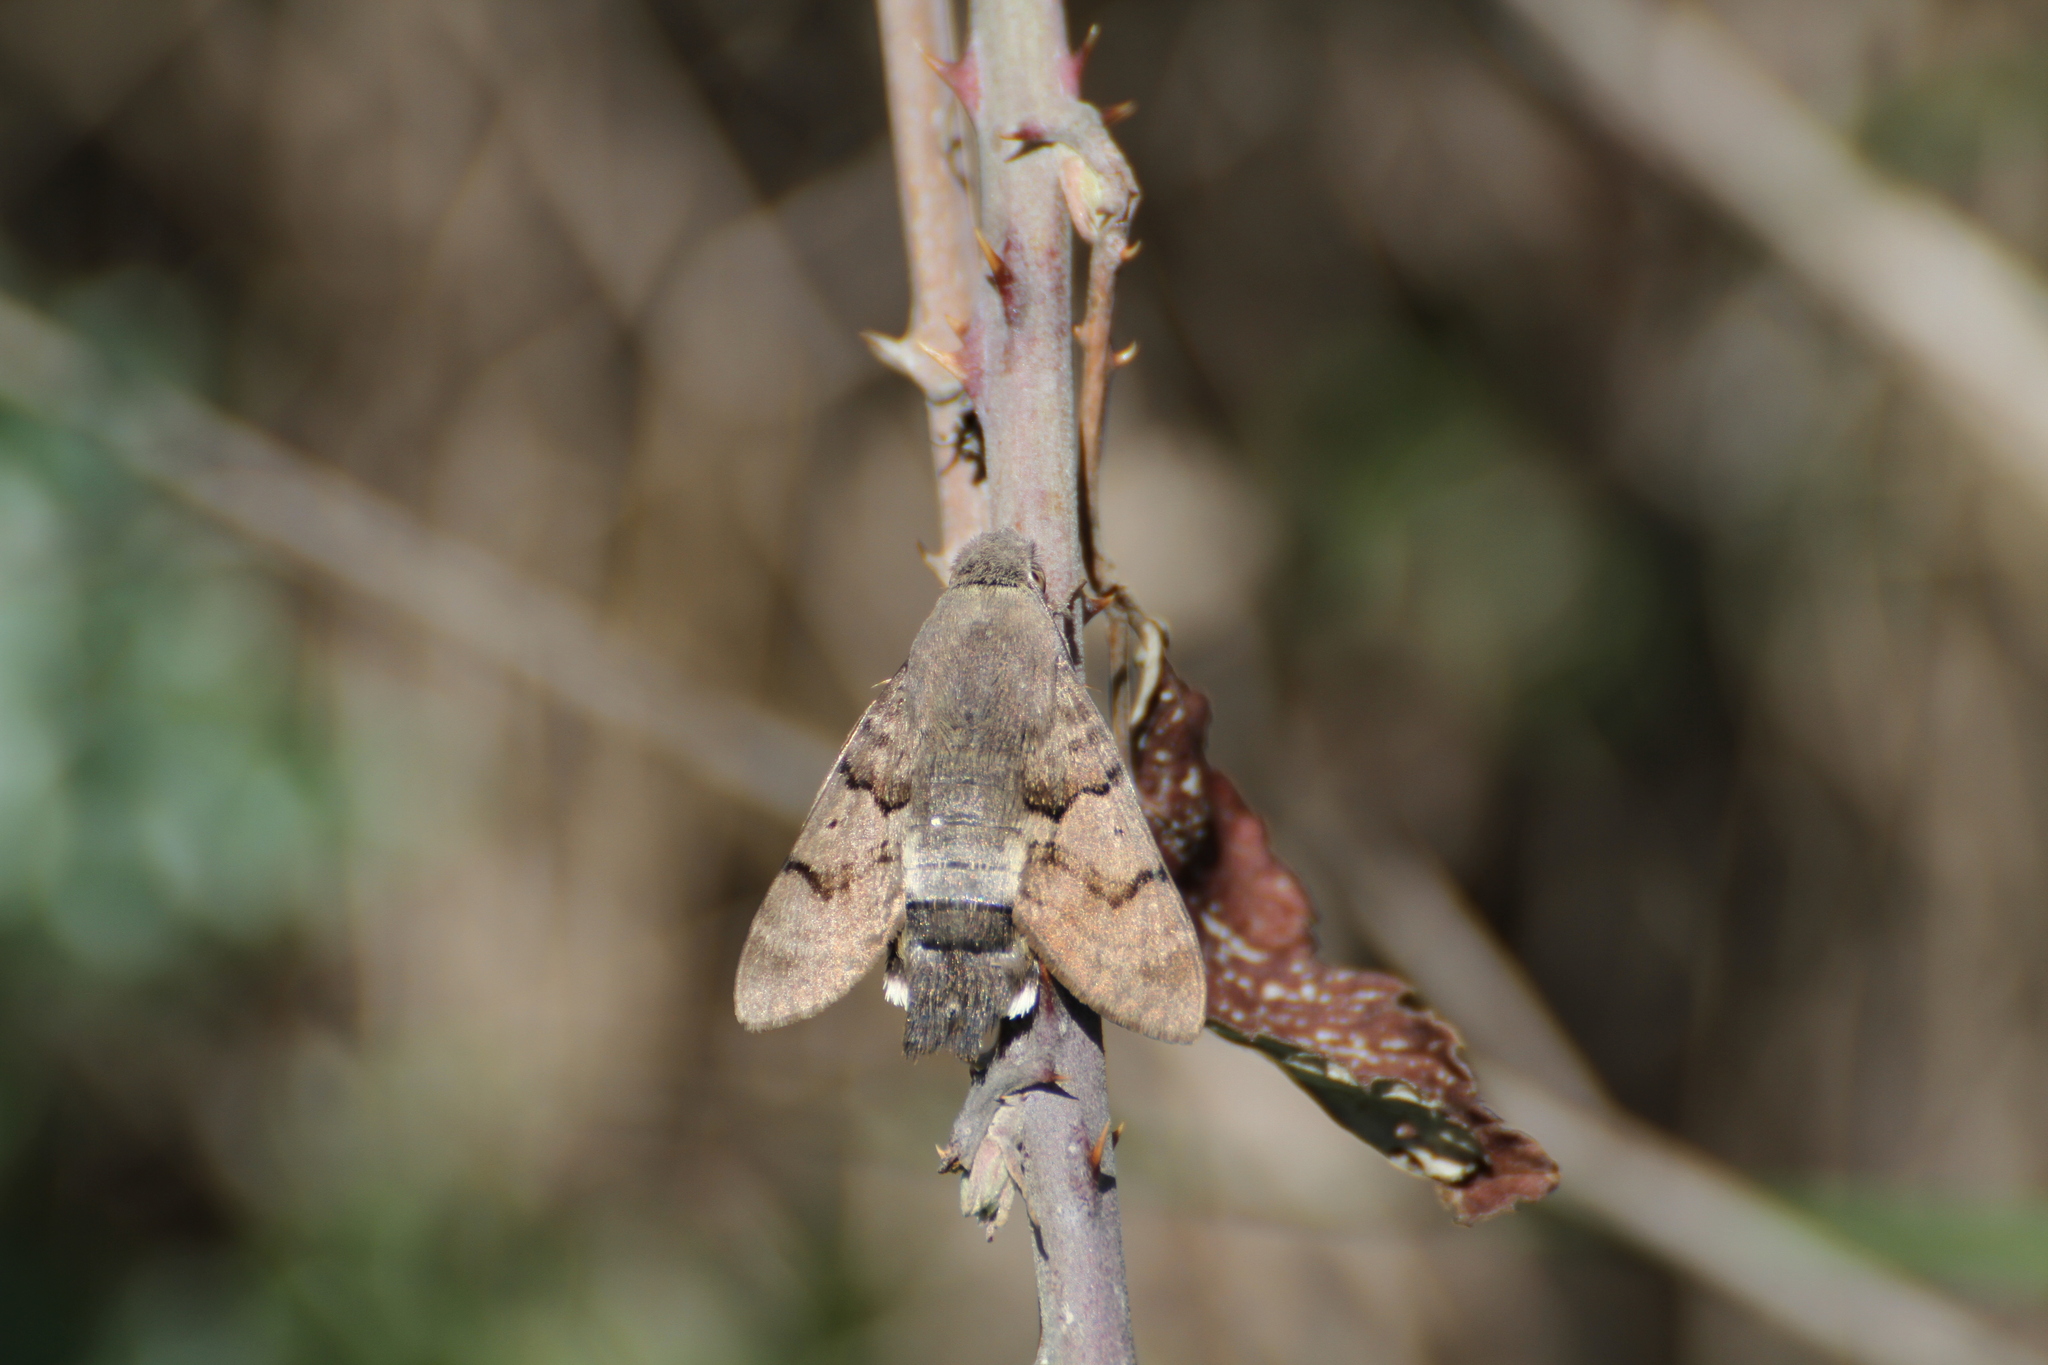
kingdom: Animalia
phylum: Arthropoda
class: Insecta
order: Lepidoptera
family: Sphingidae
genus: Macroglossum
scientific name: Macroglossum stellatarum
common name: Humming-bird hawk-moth
